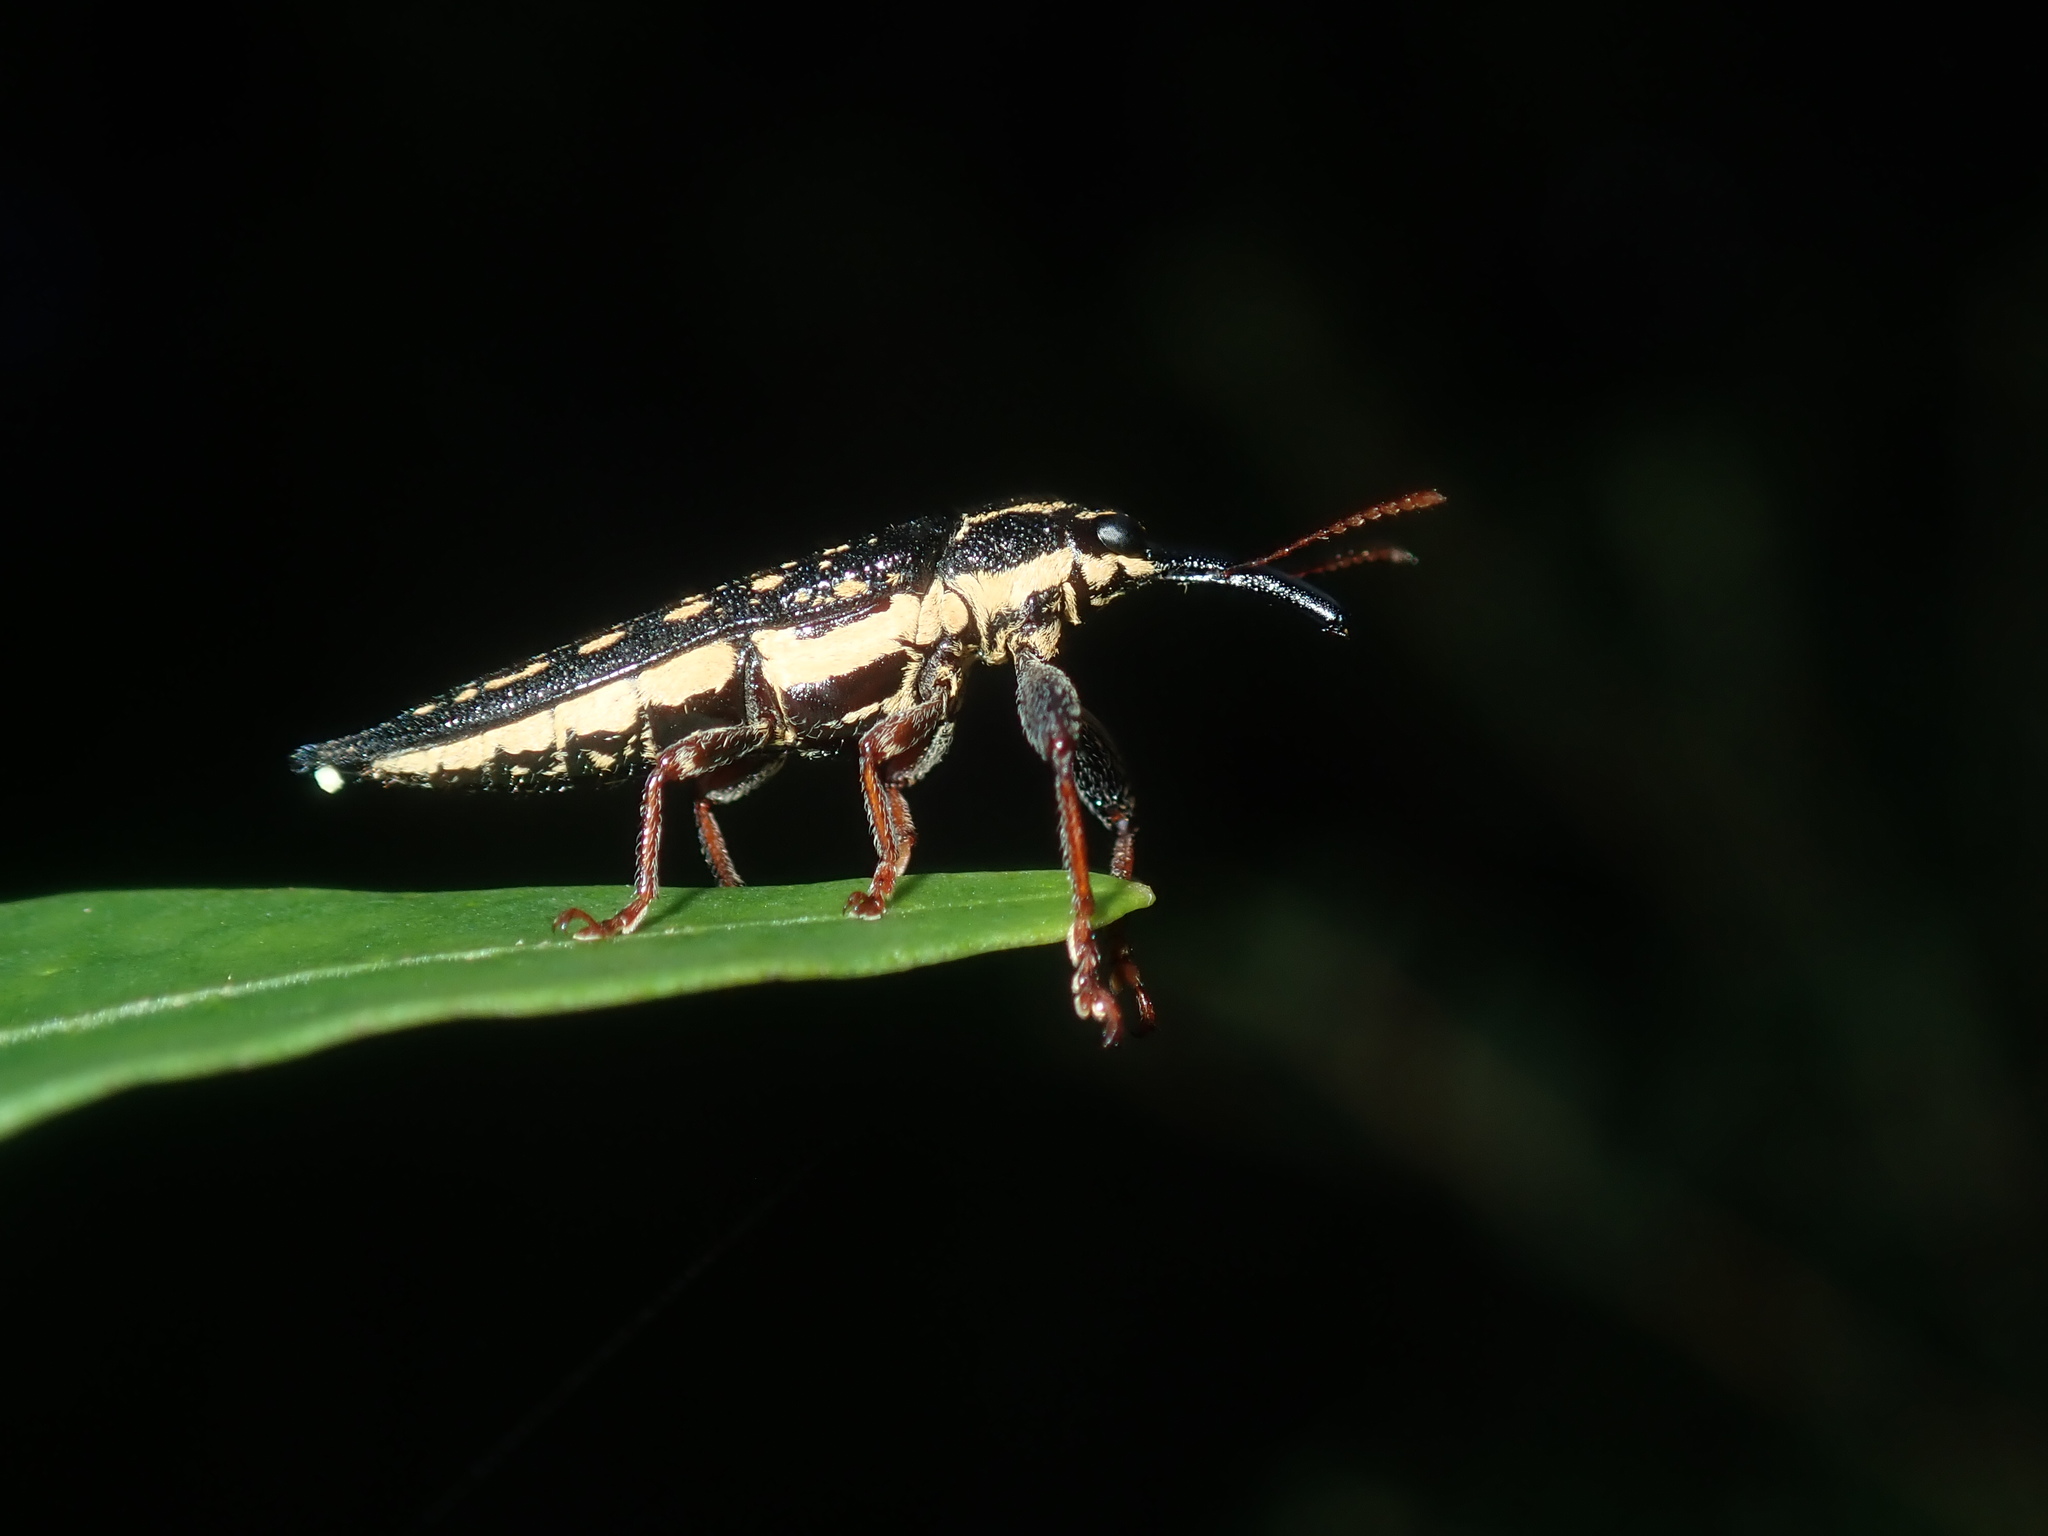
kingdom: Animalia
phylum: Arthropoda
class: Insecta
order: Coleoptera
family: Belidae
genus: Rhinotia
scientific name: Rhinotia lineata
